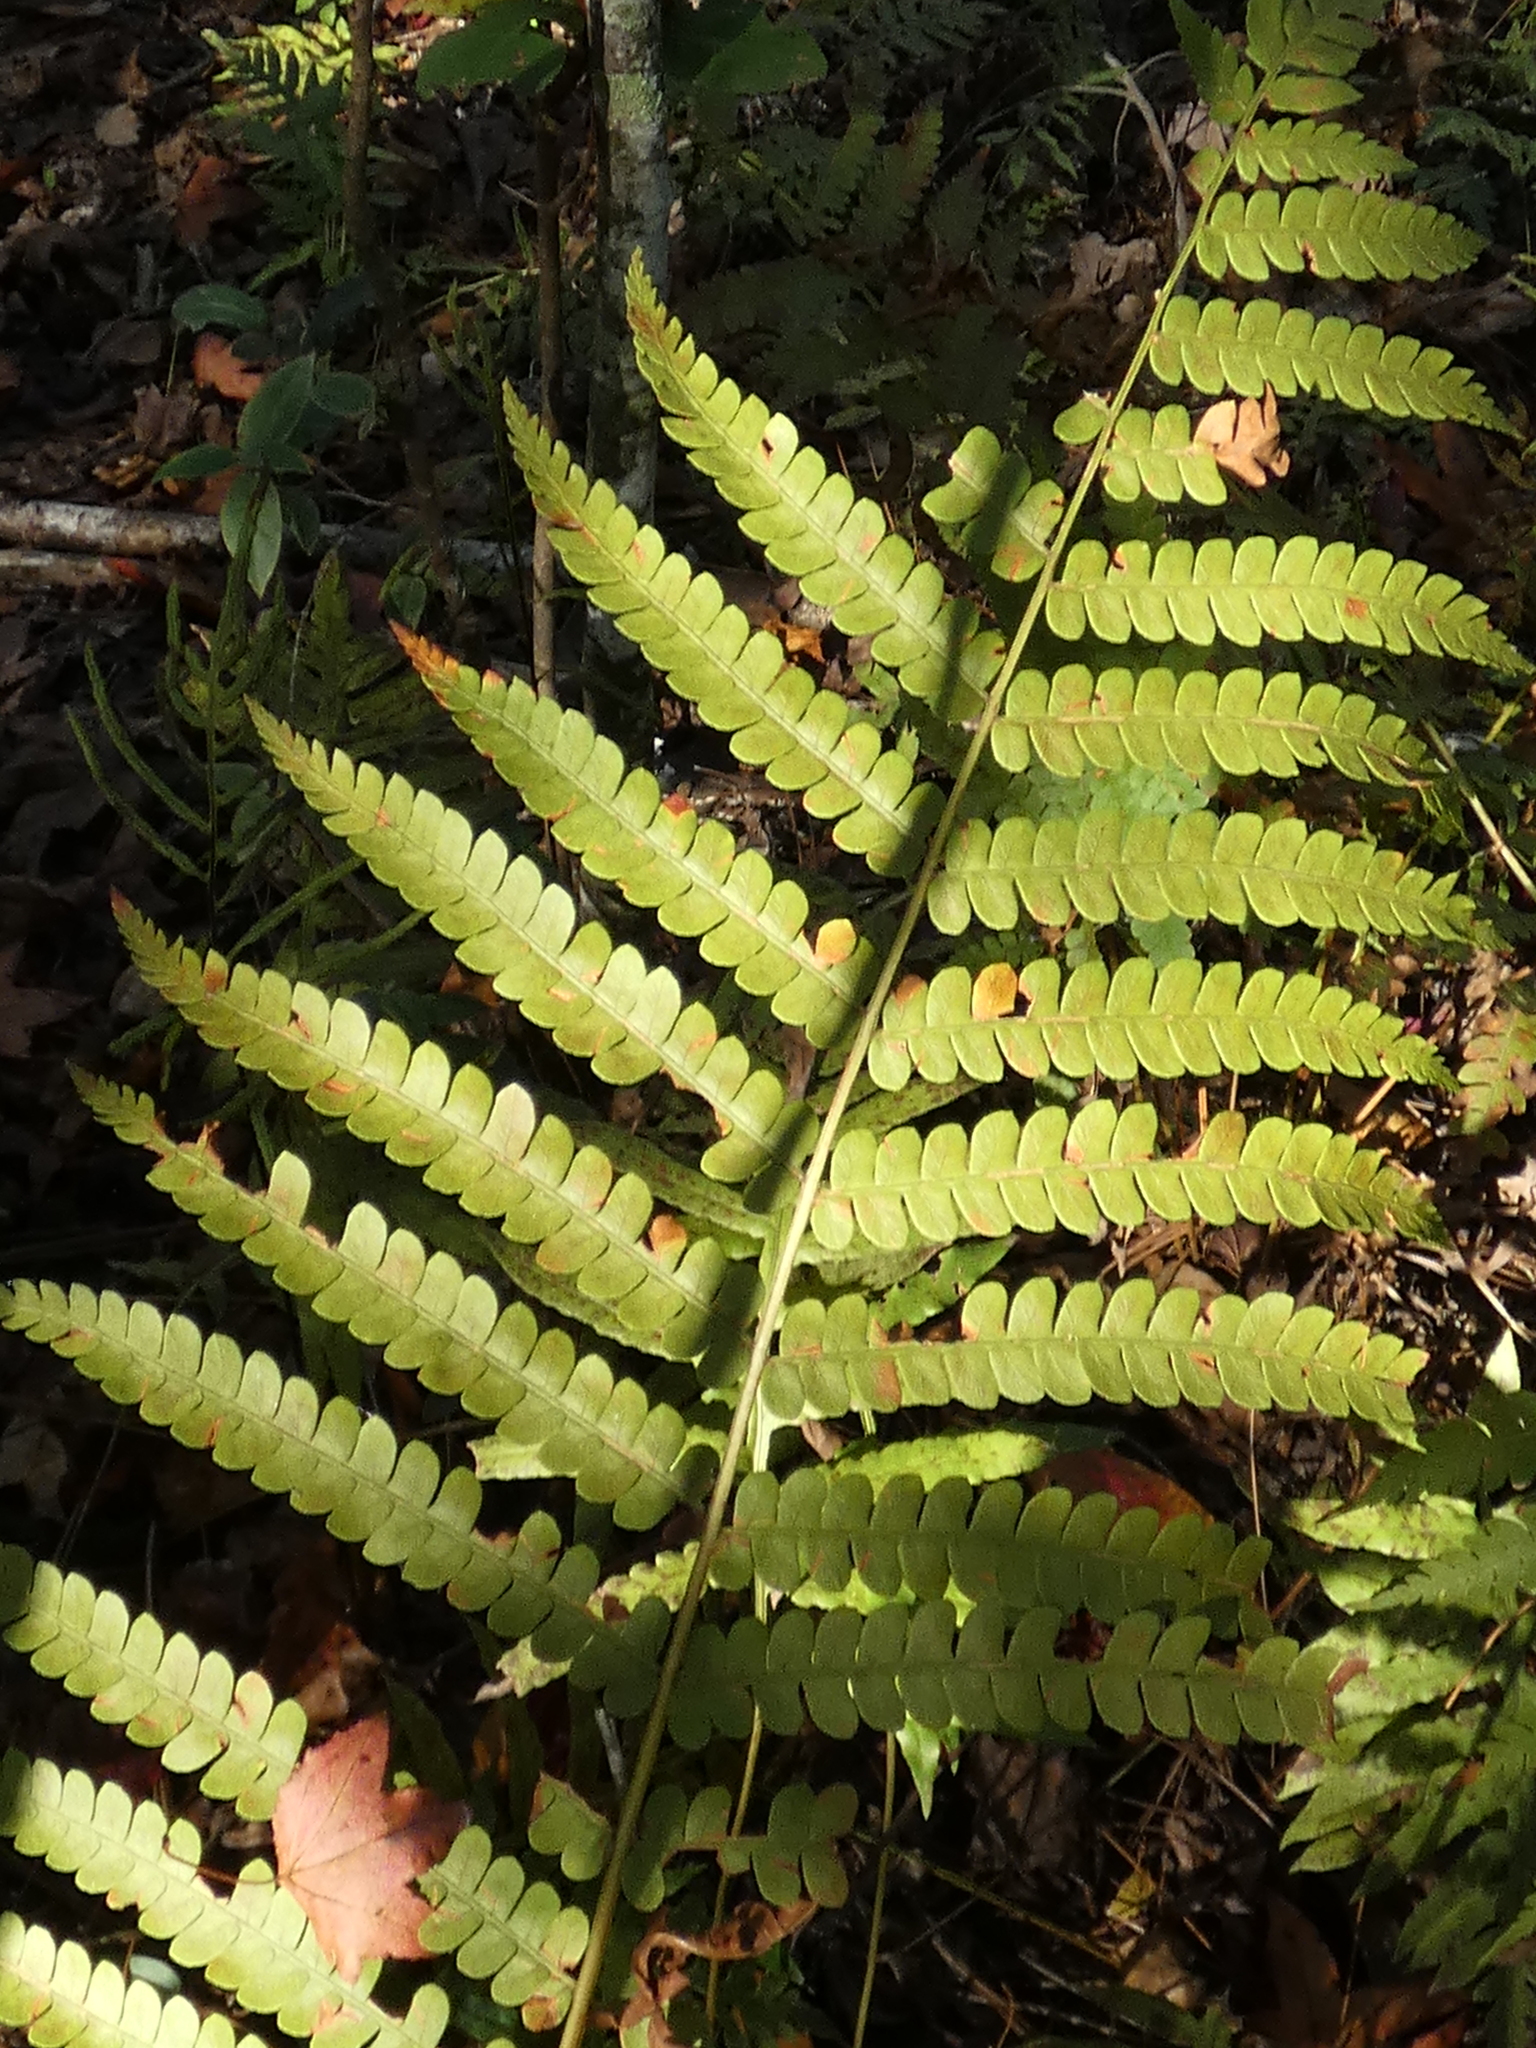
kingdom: Plantae
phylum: Tracheophyta
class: Polypodiopsida
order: Osmundales
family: Osmundaceae
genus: Osmundastrum
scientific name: Osmundastrum cinnamomeum
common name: Cinnamon fern
